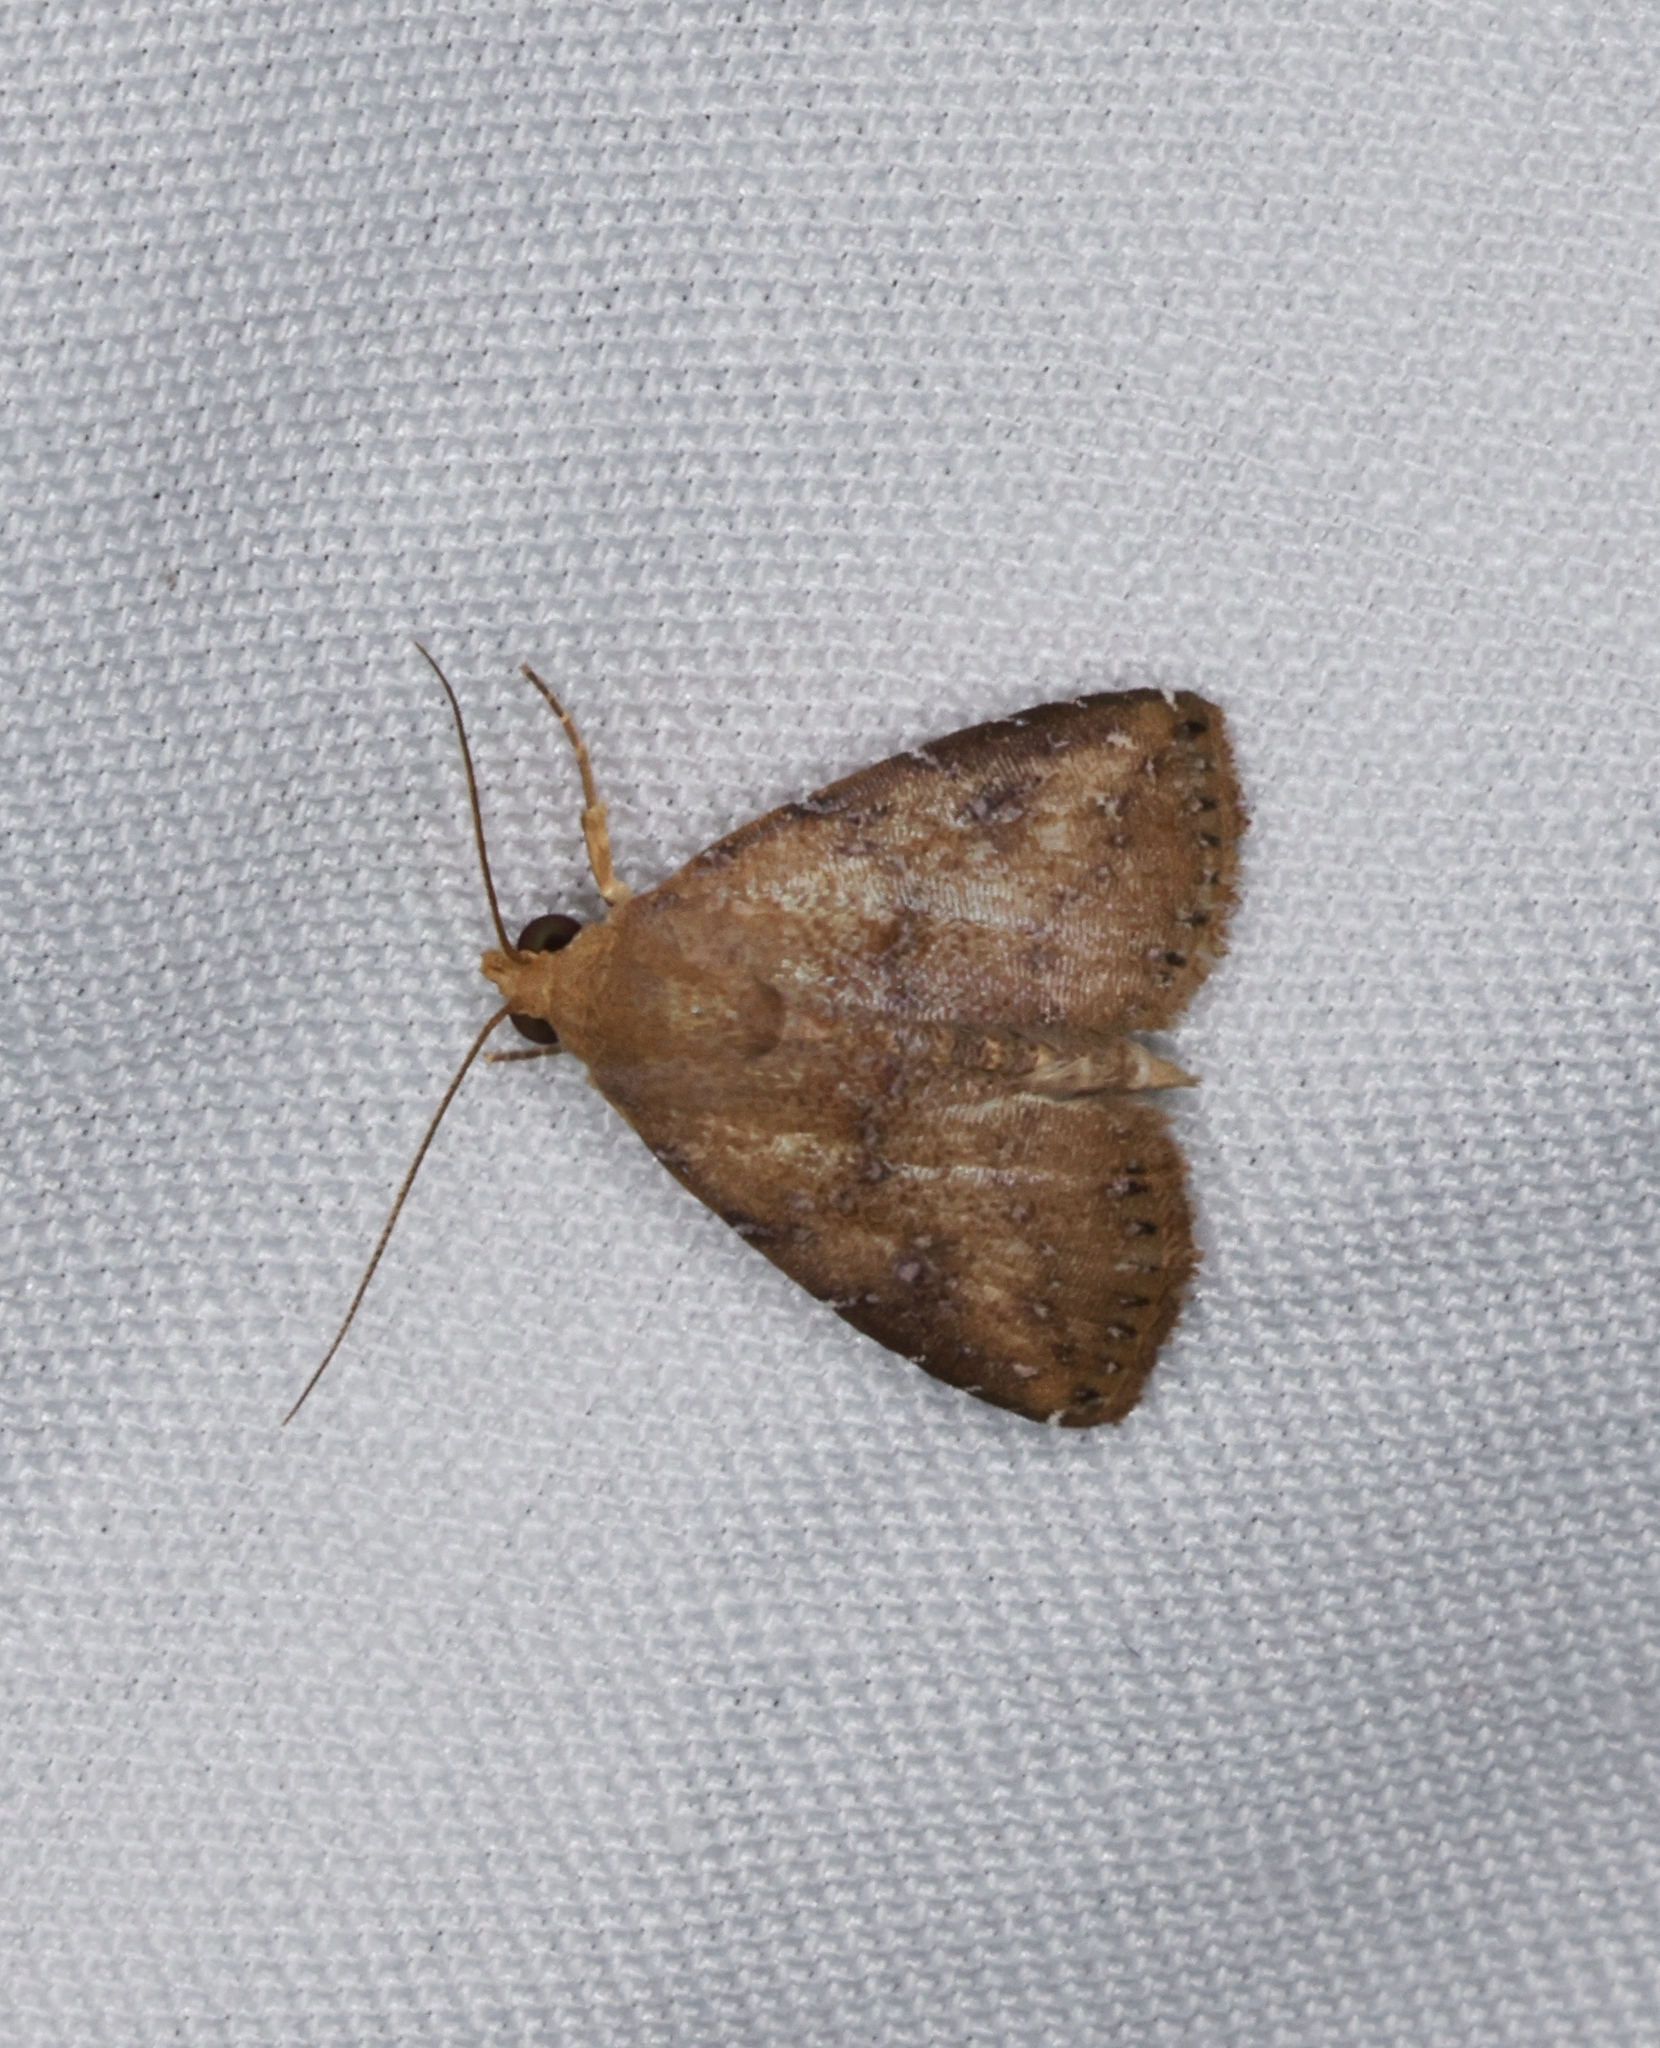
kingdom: Animalia
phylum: Arthropoda
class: Insecta
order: Lepidoptera
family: Erebidae
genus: Rivula
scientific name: Rivula sordida
